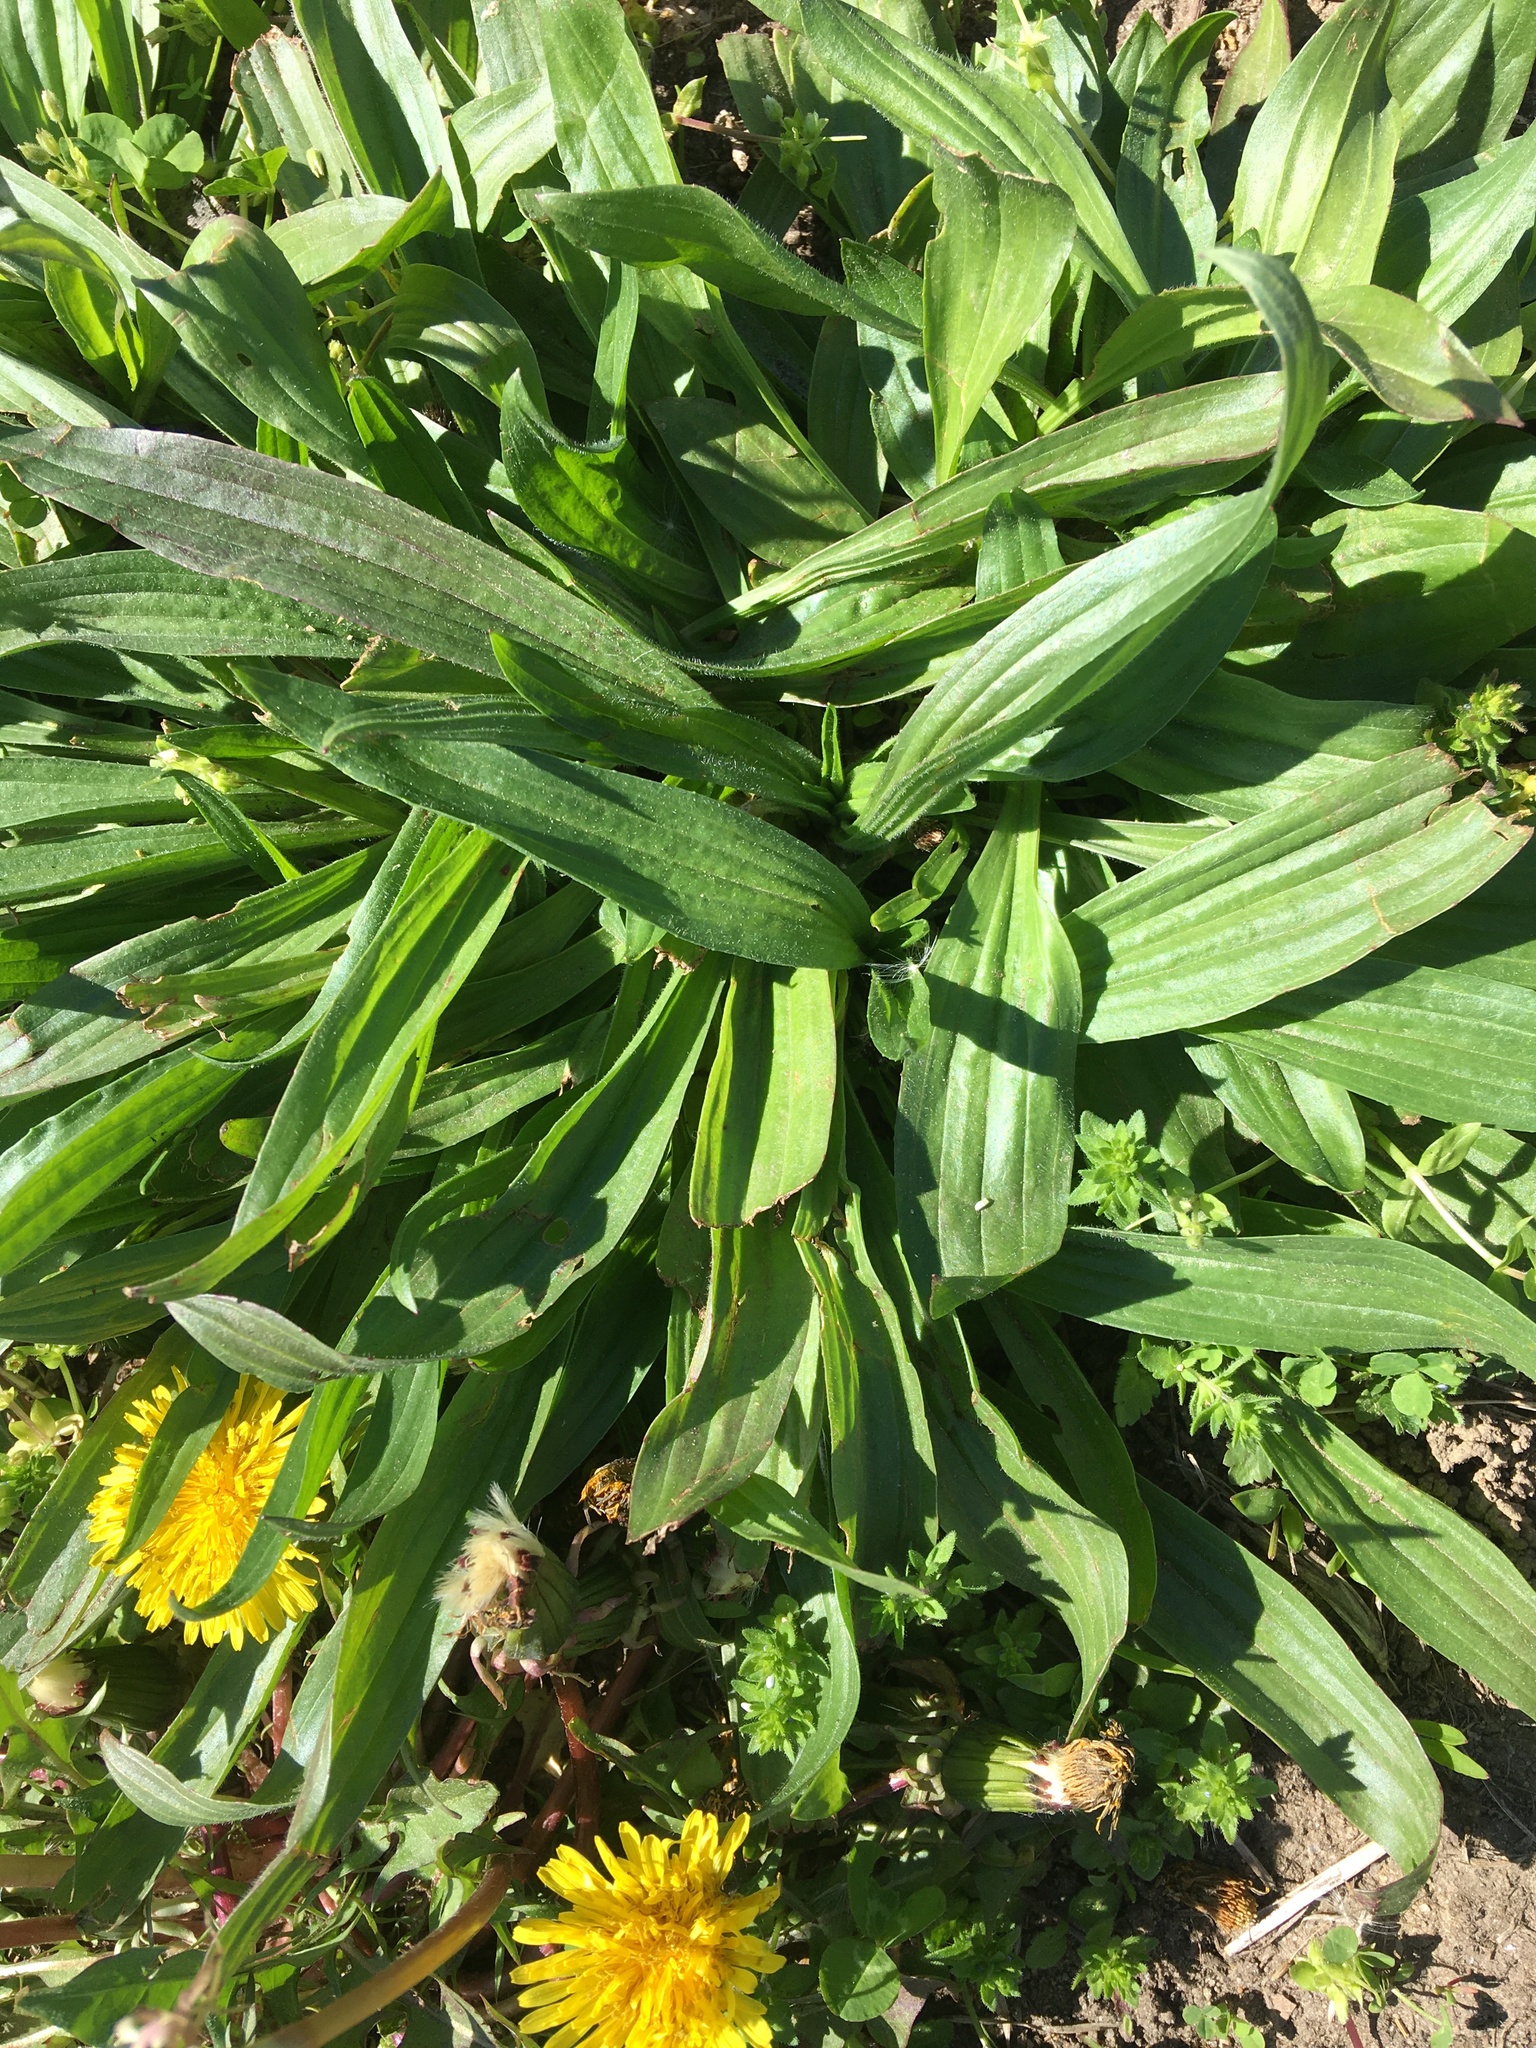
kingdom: Plantae
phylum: Tracheophyta
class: Magnoliopsida
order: Lamiales
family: Plantaginaceae
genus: Plantago
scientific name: Plantago lanceolata
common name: Ribwort plantain
